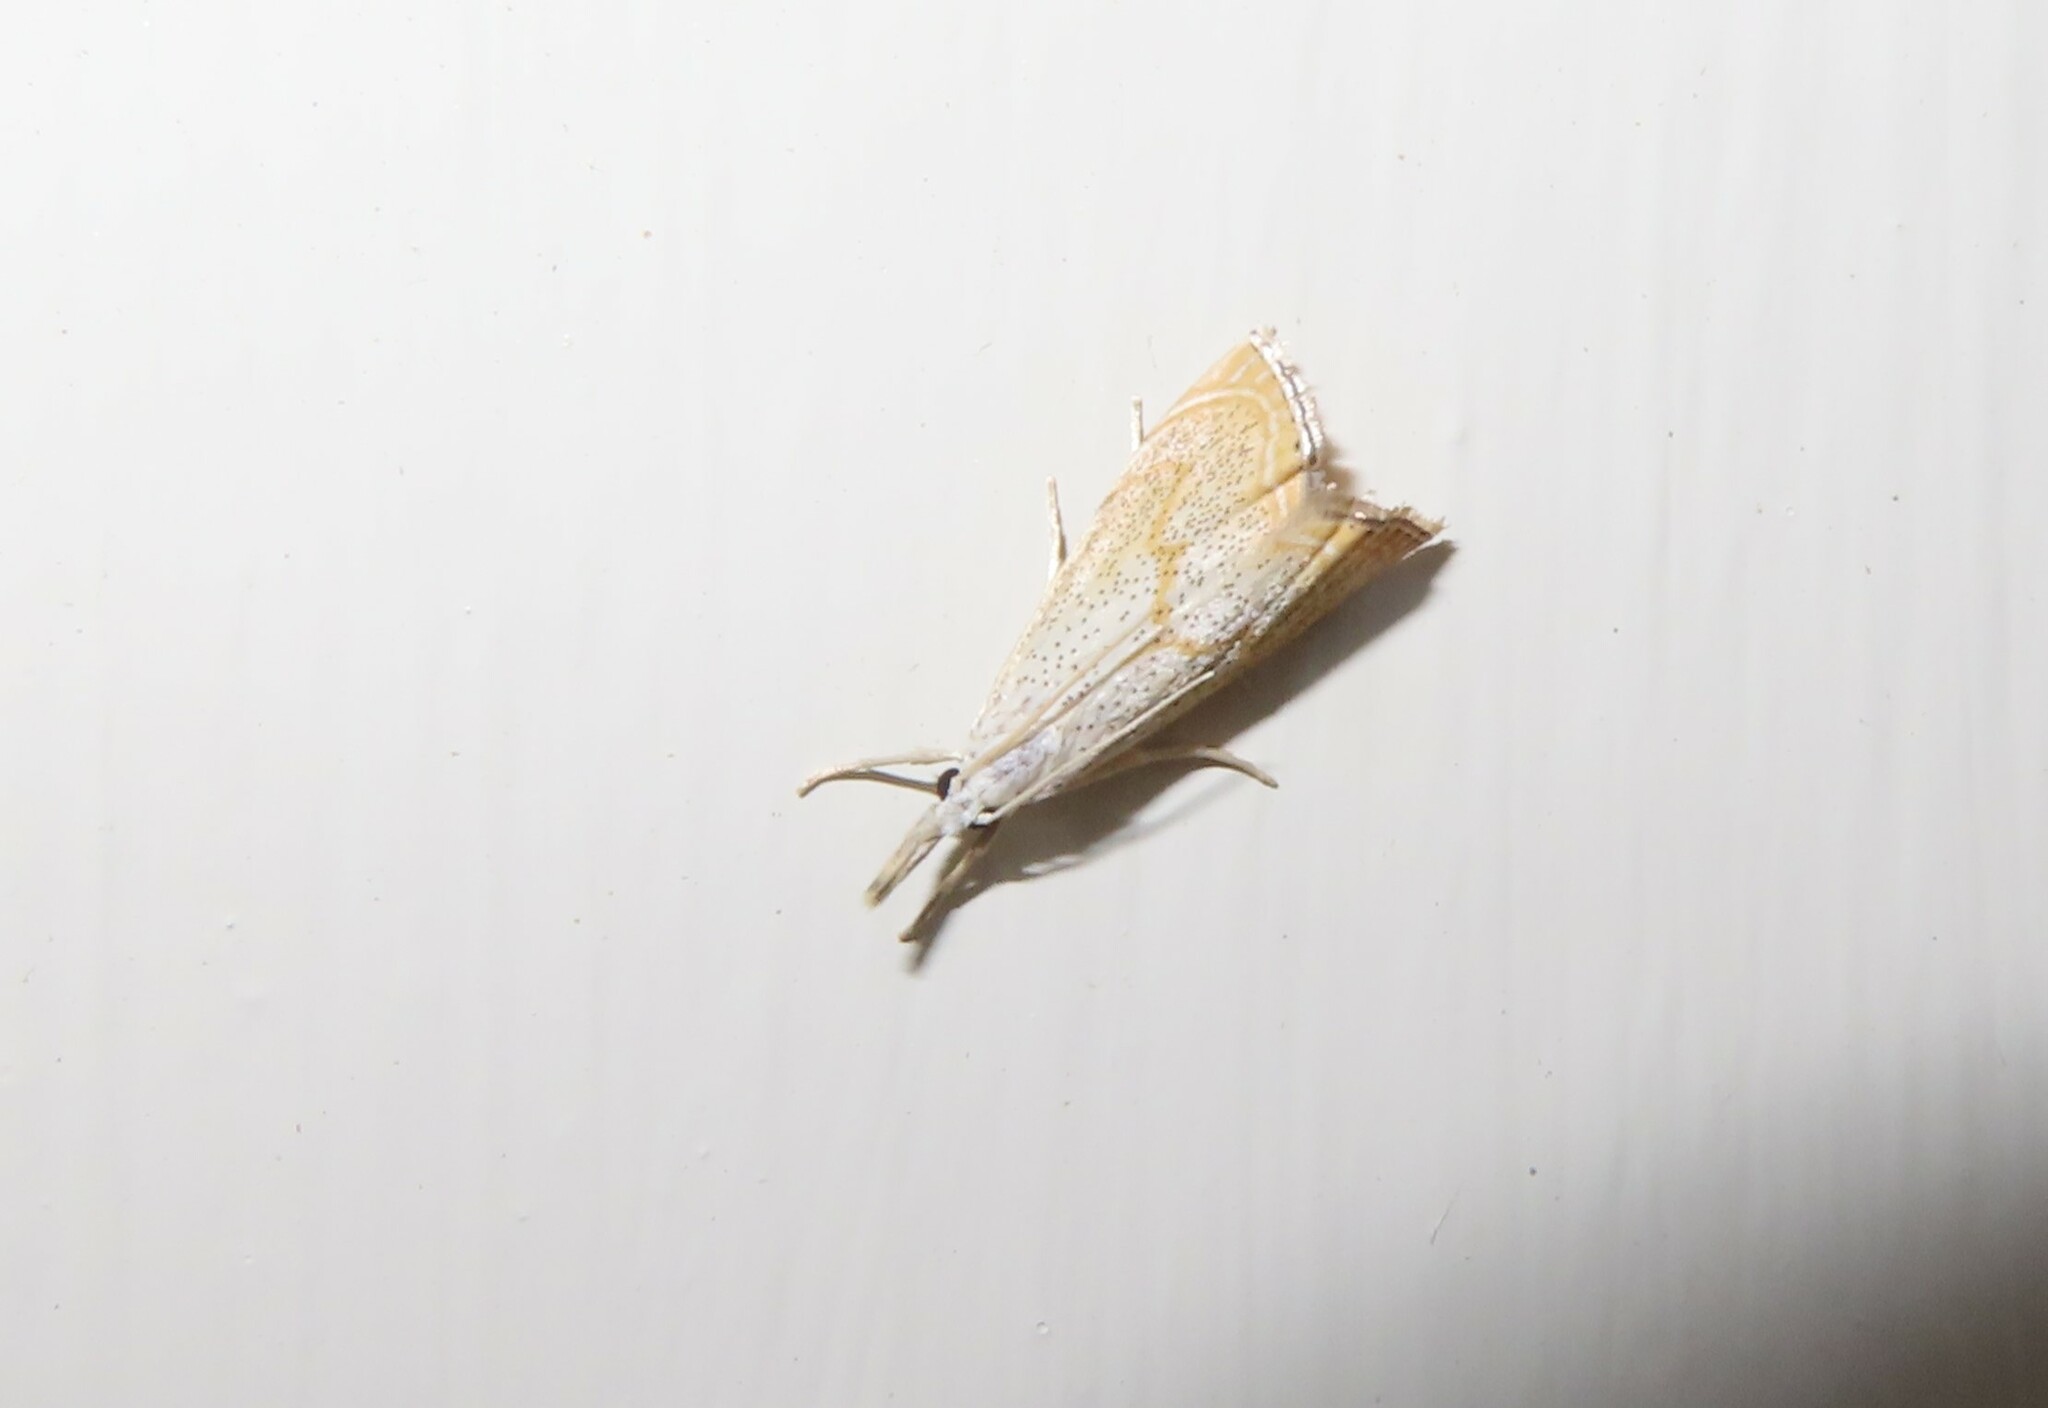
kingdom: Animalia
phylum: Arthropoda
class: Insecta
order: Lepidoptera
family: Crambidae
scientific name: Crambidae
